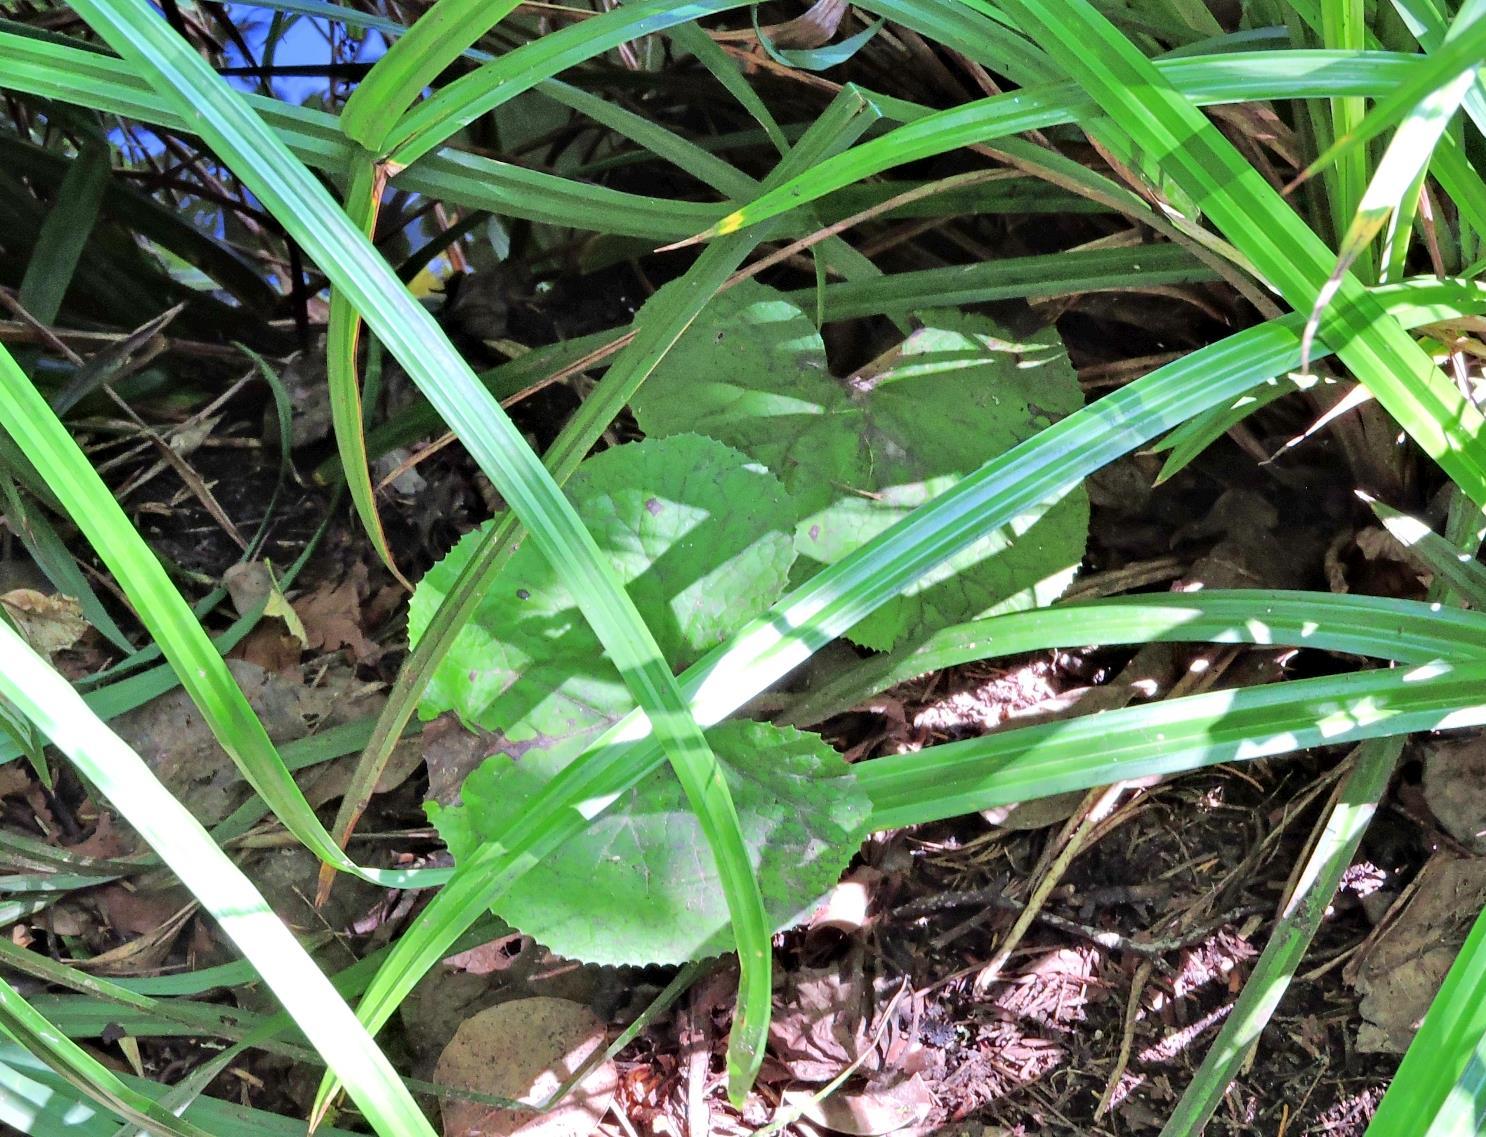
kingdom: Plantae
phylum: Tracheophyta
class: Magnoliopsida
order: Asterales
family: Asteraceae
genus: Petasites
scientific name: Petasites pyrenaicus
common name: Winter heliotrope
